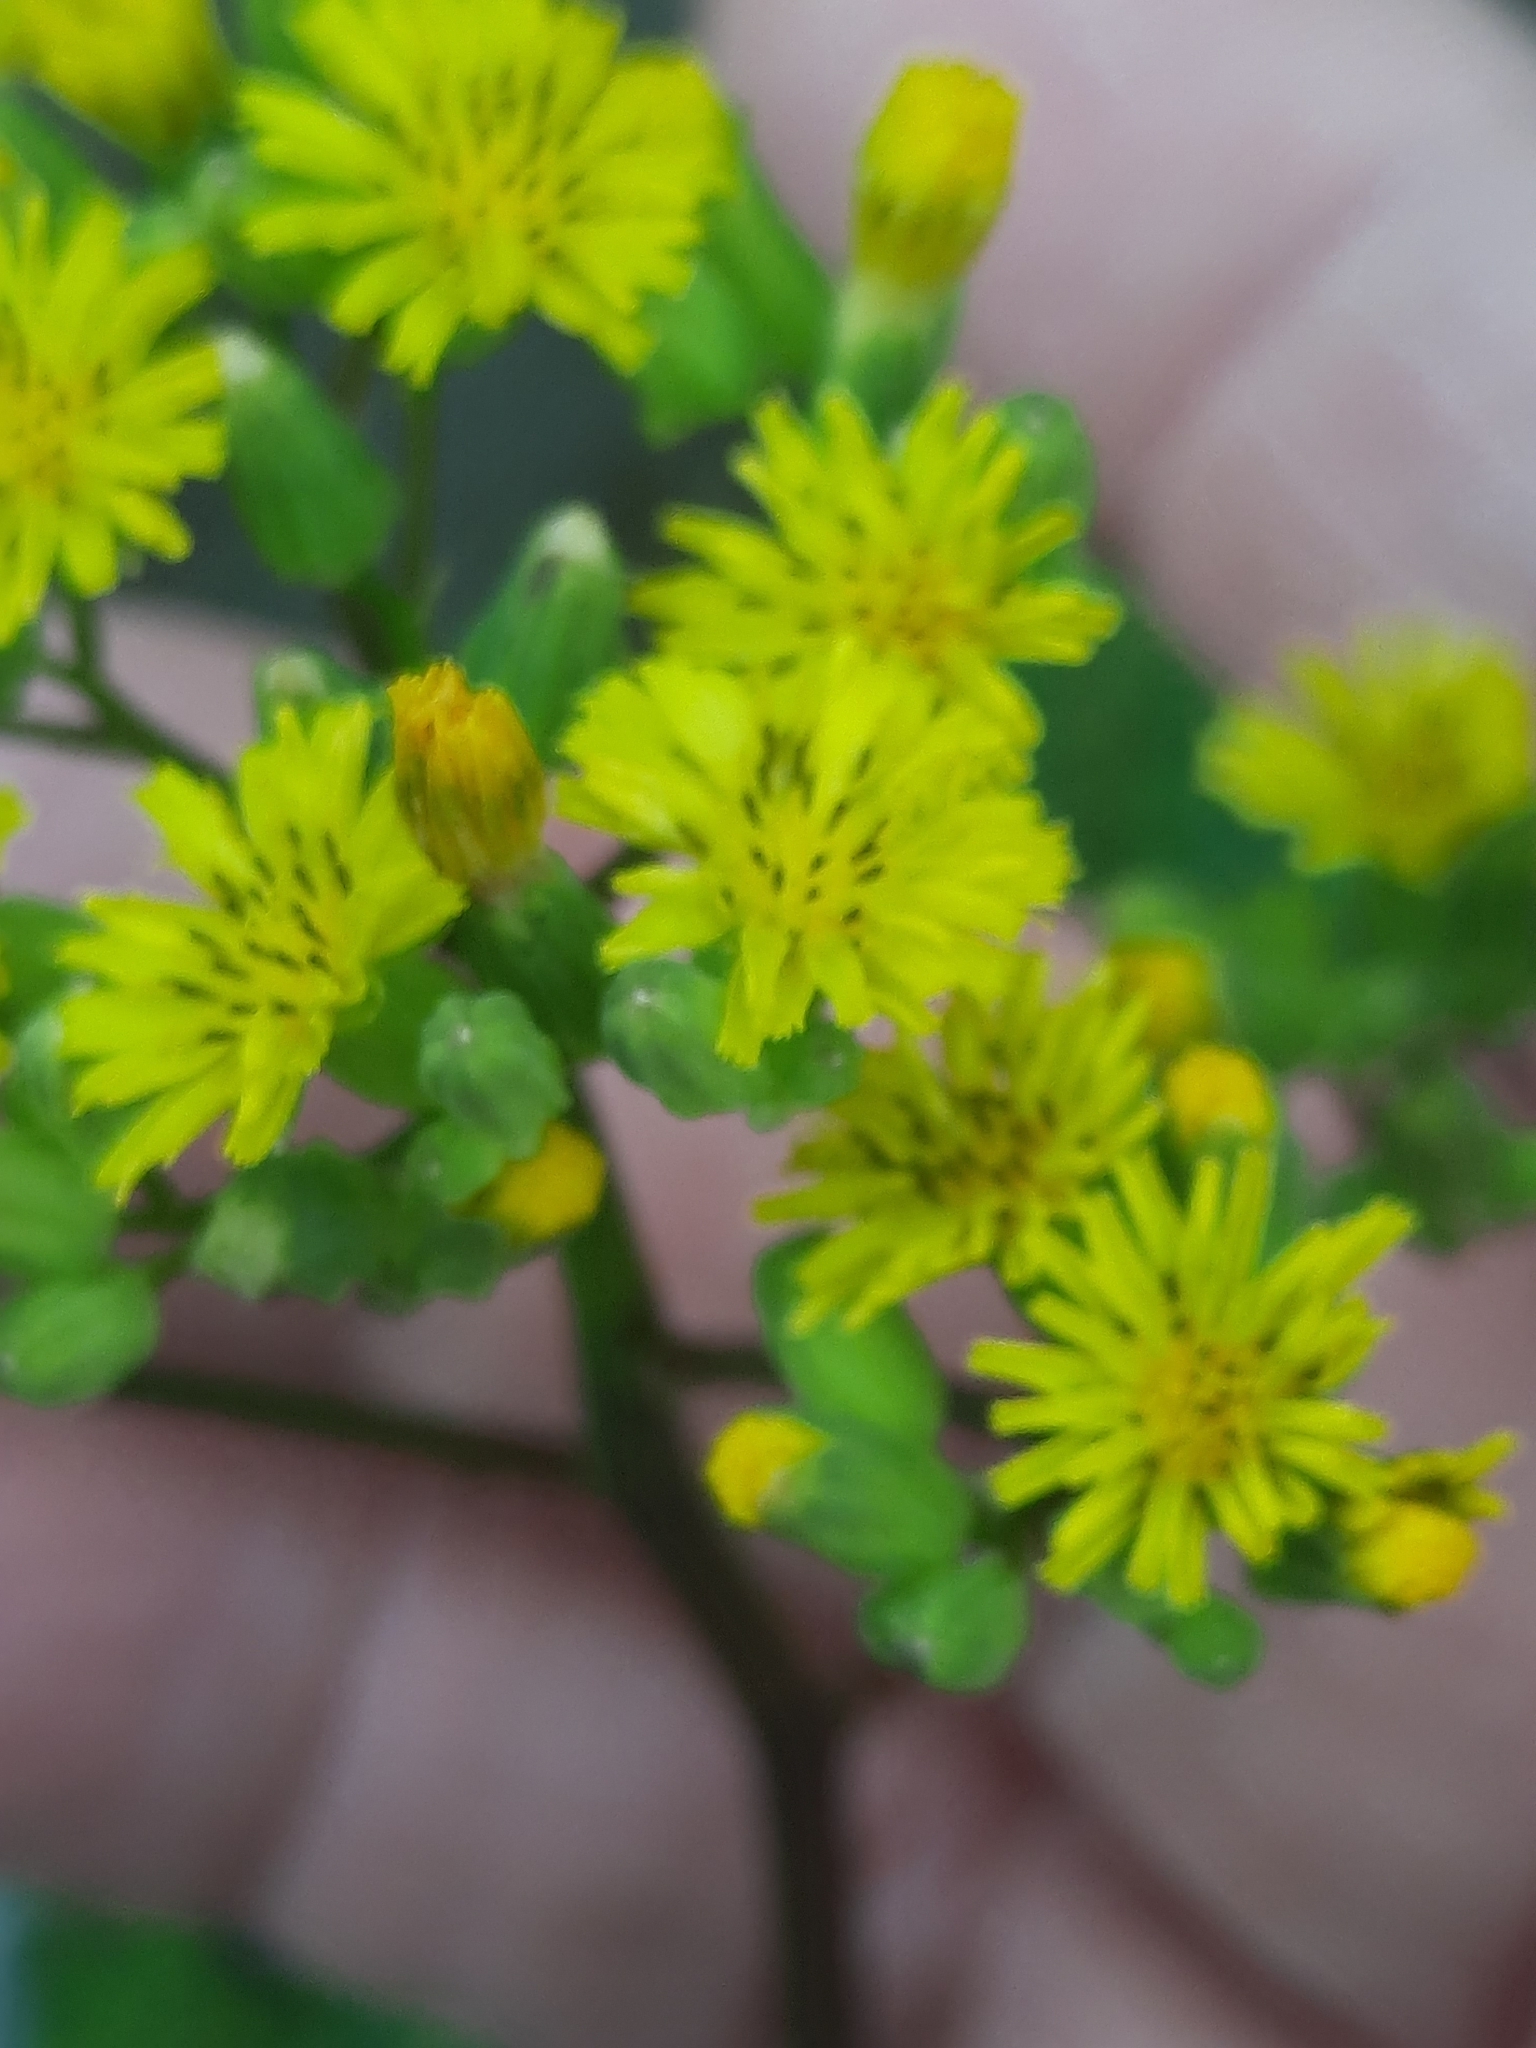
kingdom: Plantae
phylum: Tracheophyta
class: Magnoliopsida
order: Asterales
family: Asteraceae
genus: Youngia
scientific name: Youngia japonica
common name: Oriental false hawksbeard
